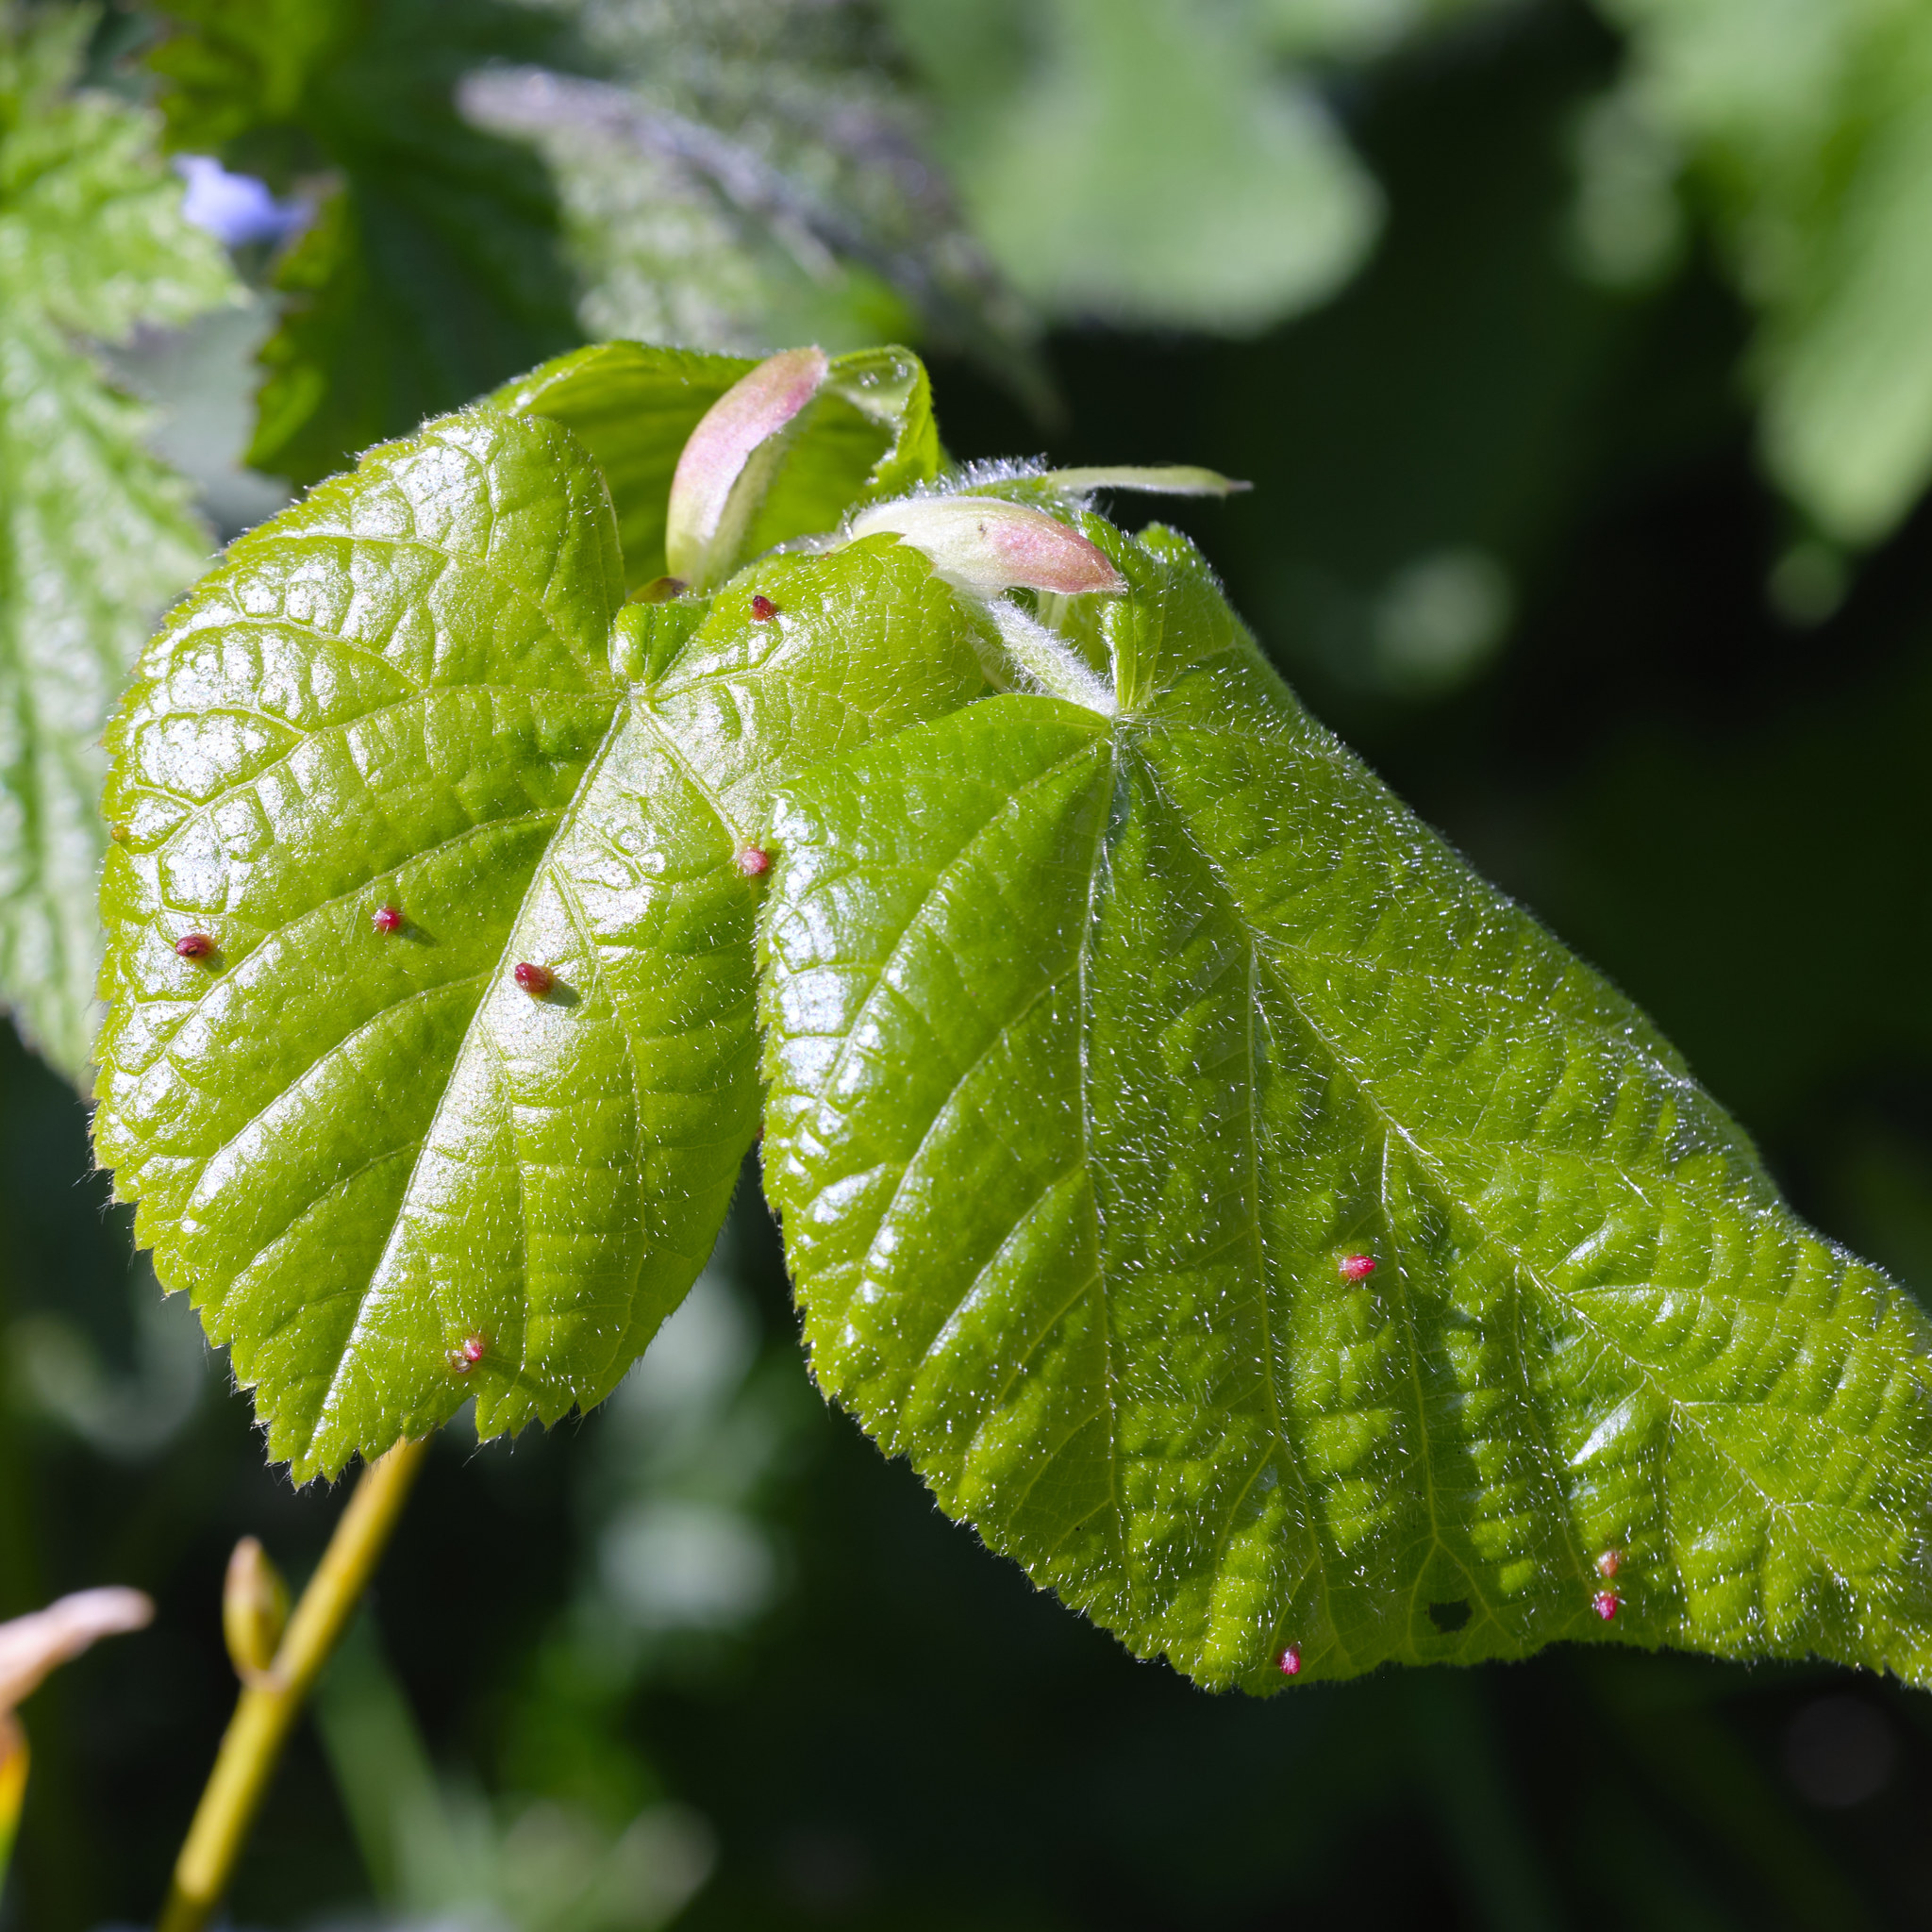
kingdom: Animalia
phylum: Arthropoda
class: Arachnida
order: Trombidiformes
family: Eriophyidae
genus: Eriophyes
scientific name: Eriophyes tiliae
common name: Red nail gall mite
